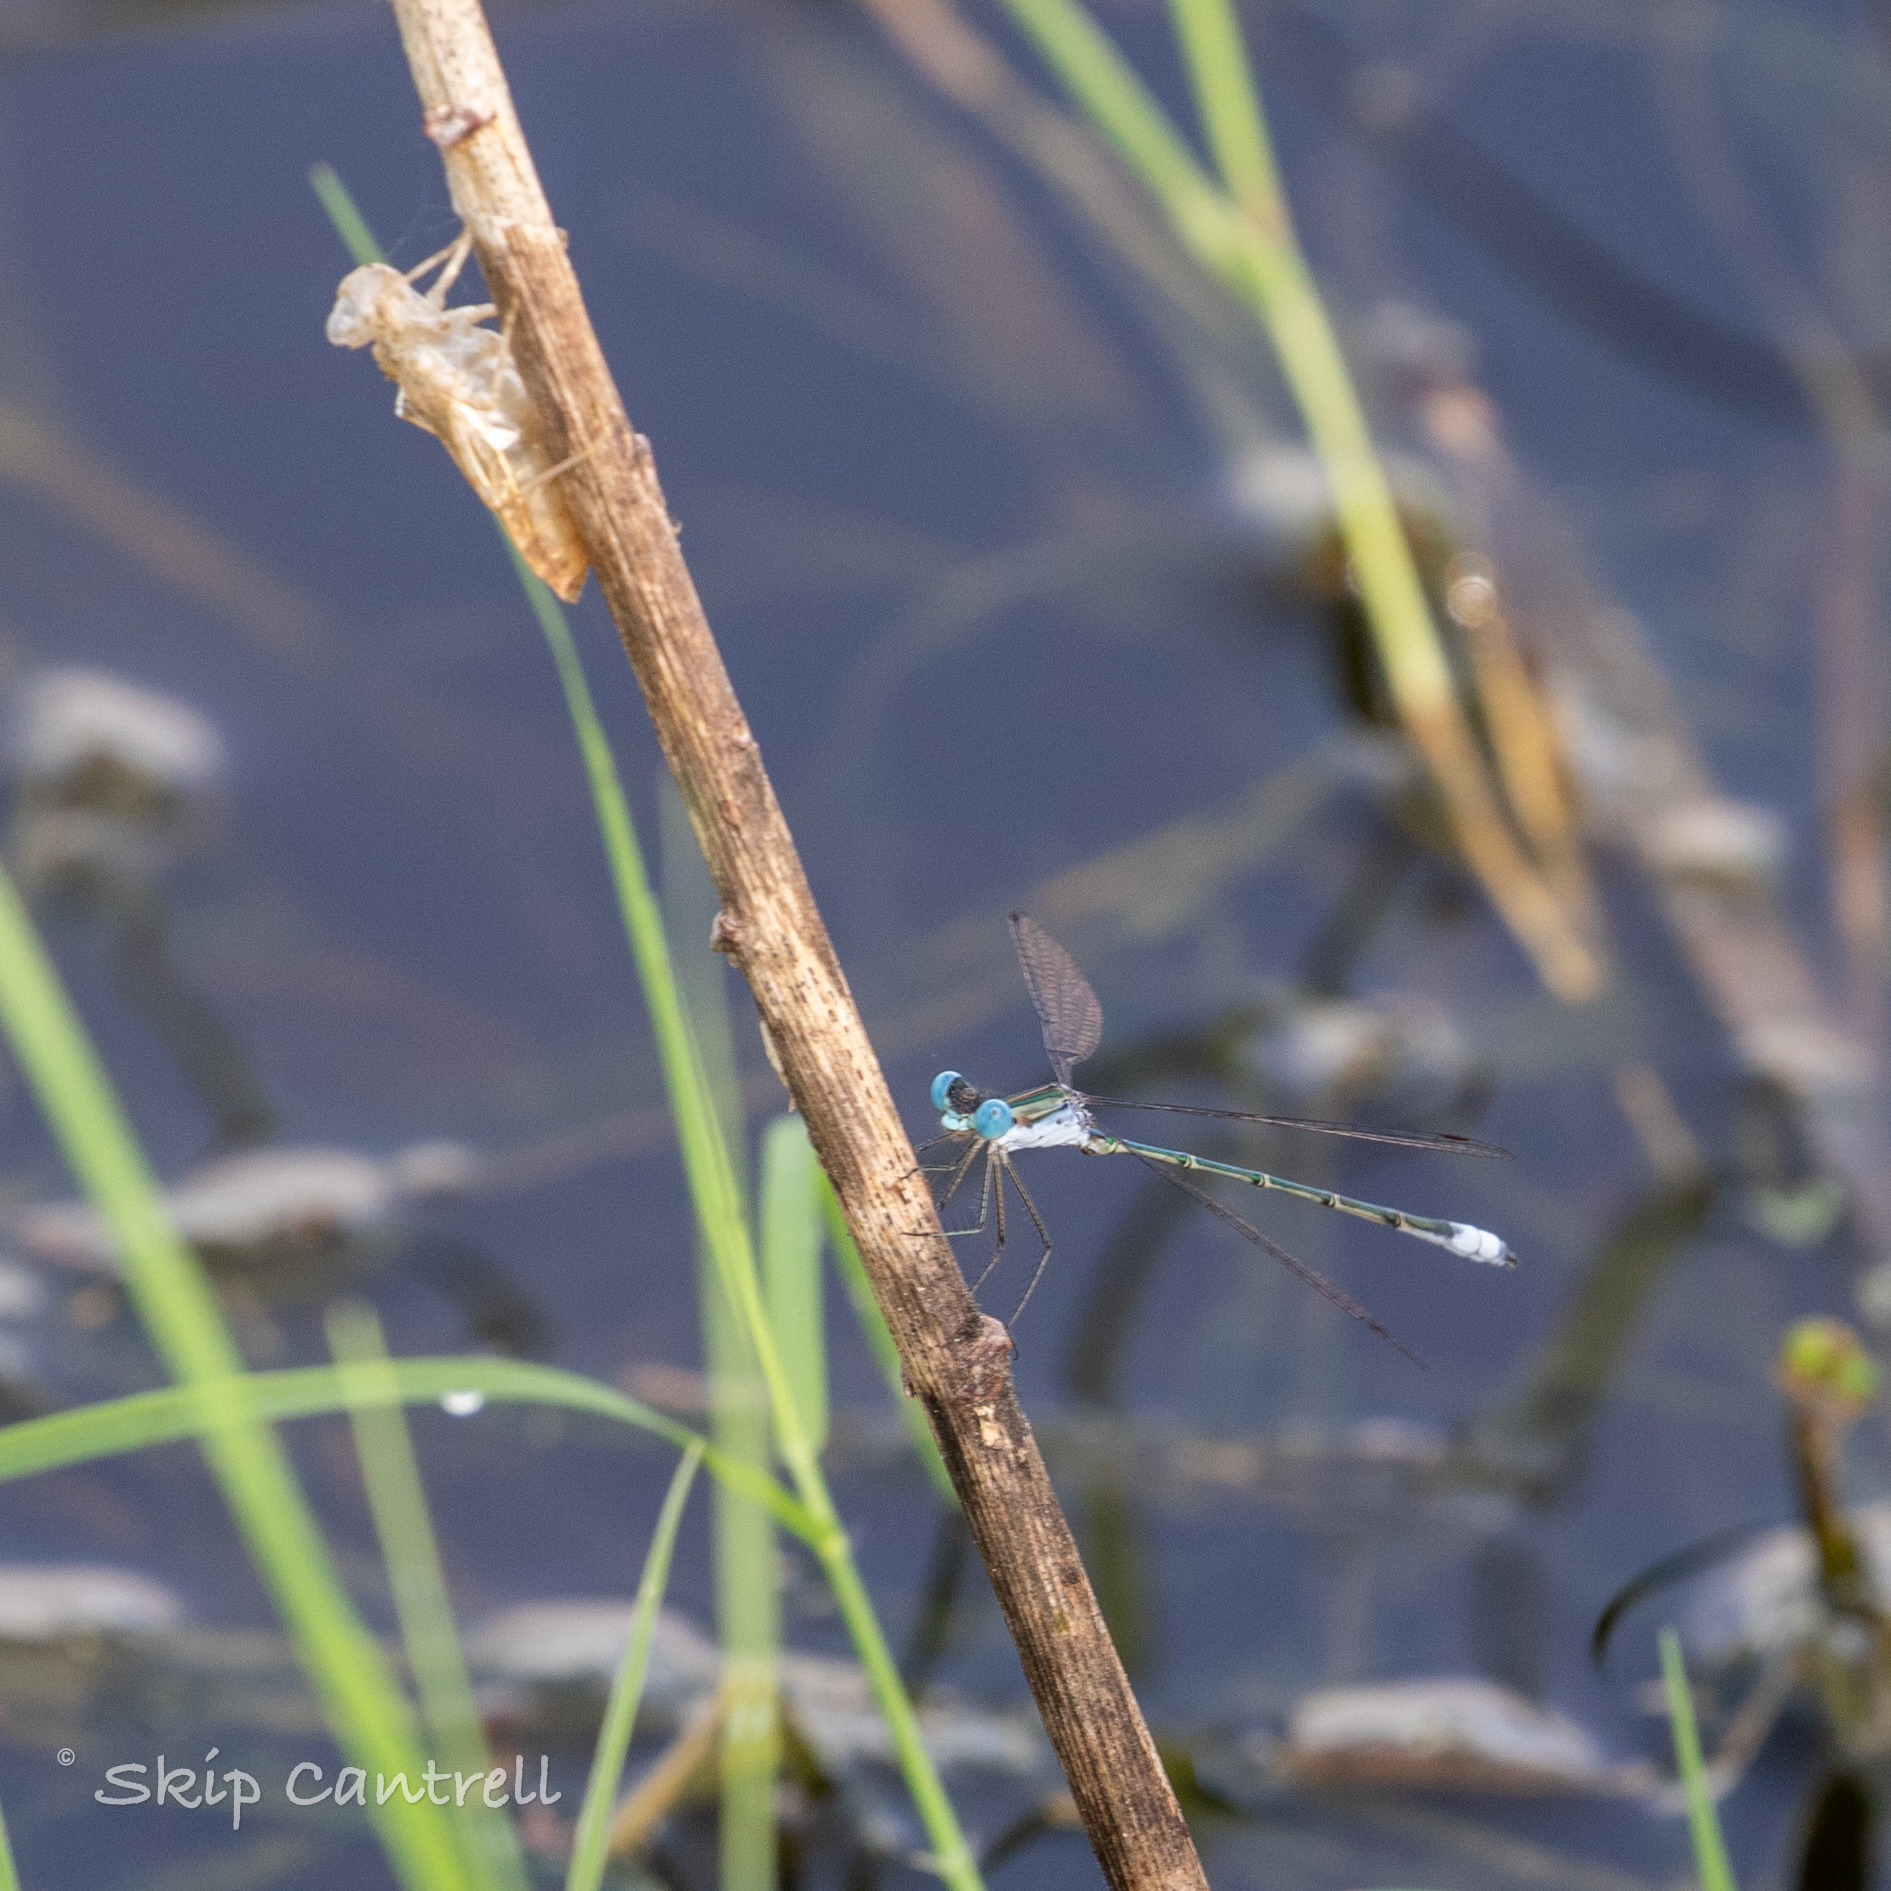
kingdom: Animalia
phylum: Arthropoda
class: Insecta
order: Odonata
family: Lestidae
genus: Lestes
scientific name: Lestes forficula
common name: Rainpool spreadwing
